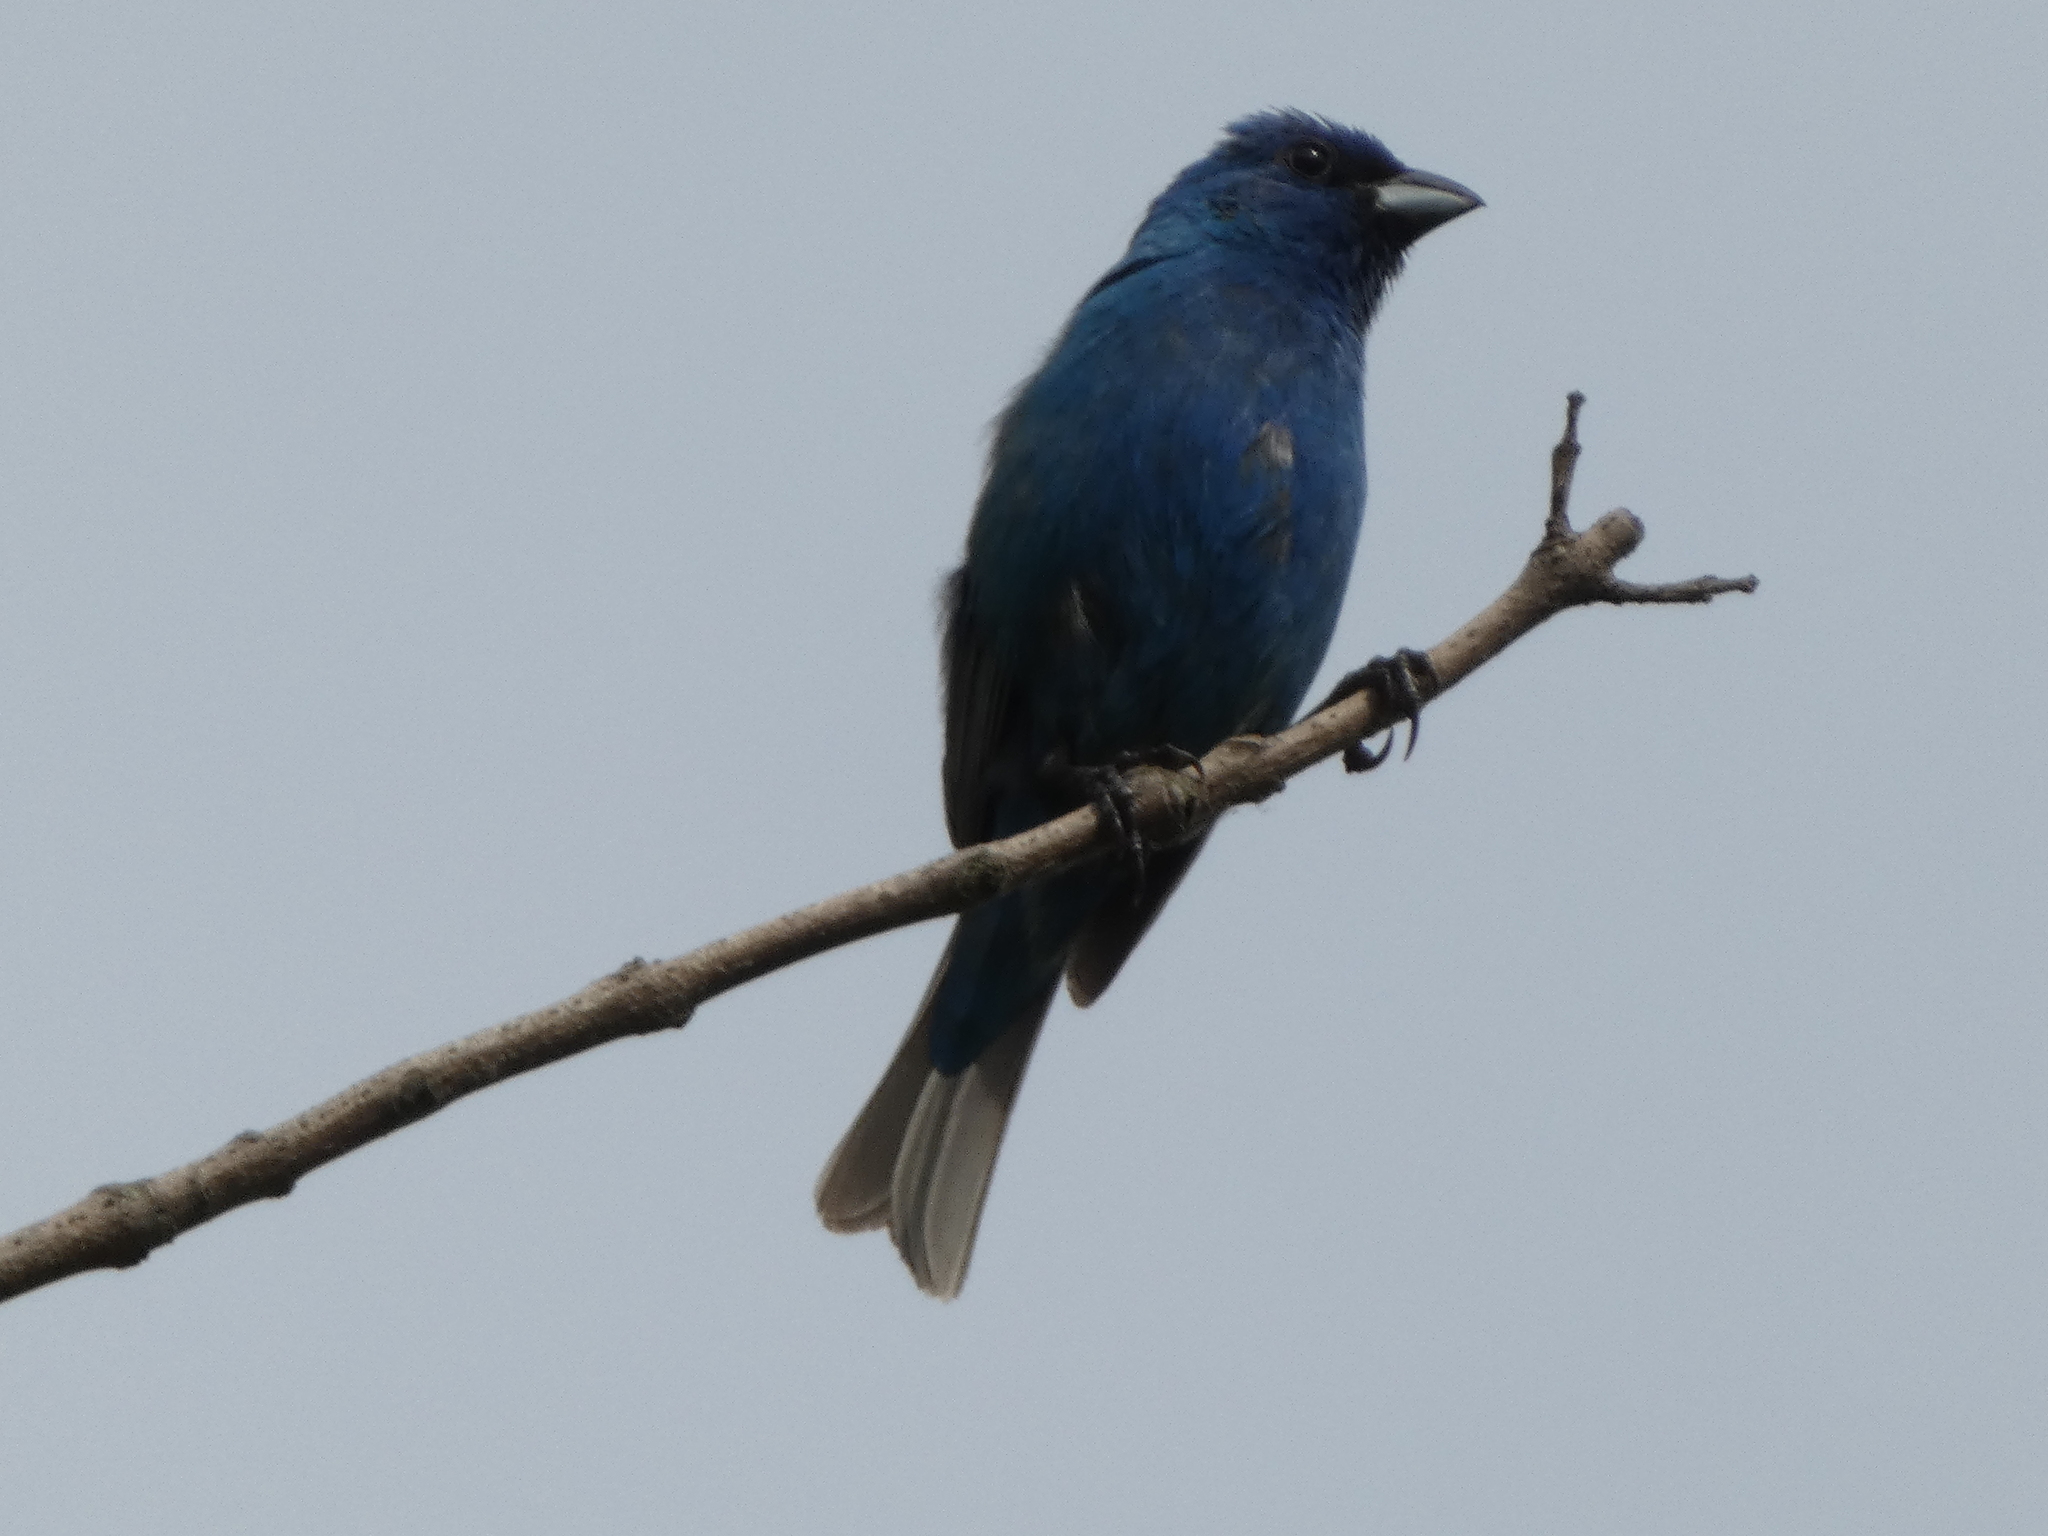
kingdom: Animalia
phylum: Chordata
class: Aves
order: Passeriformes
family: Cardinalidae
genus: Passerina
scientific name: Passerina cyanea
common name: Indigo bunting
